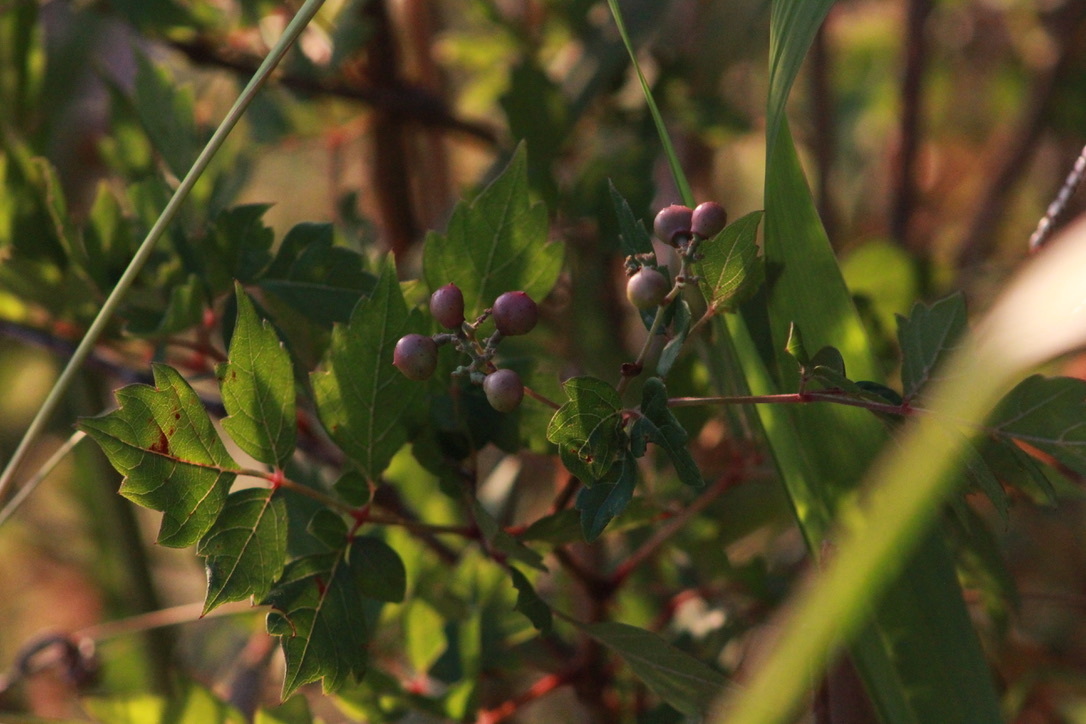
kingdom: Plantae
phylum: Tracheophyta
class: Magnoliopsida
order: Vitales
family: Vitaceae
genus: Nekemias
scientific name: Nekemias arborea
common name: Peppervine
